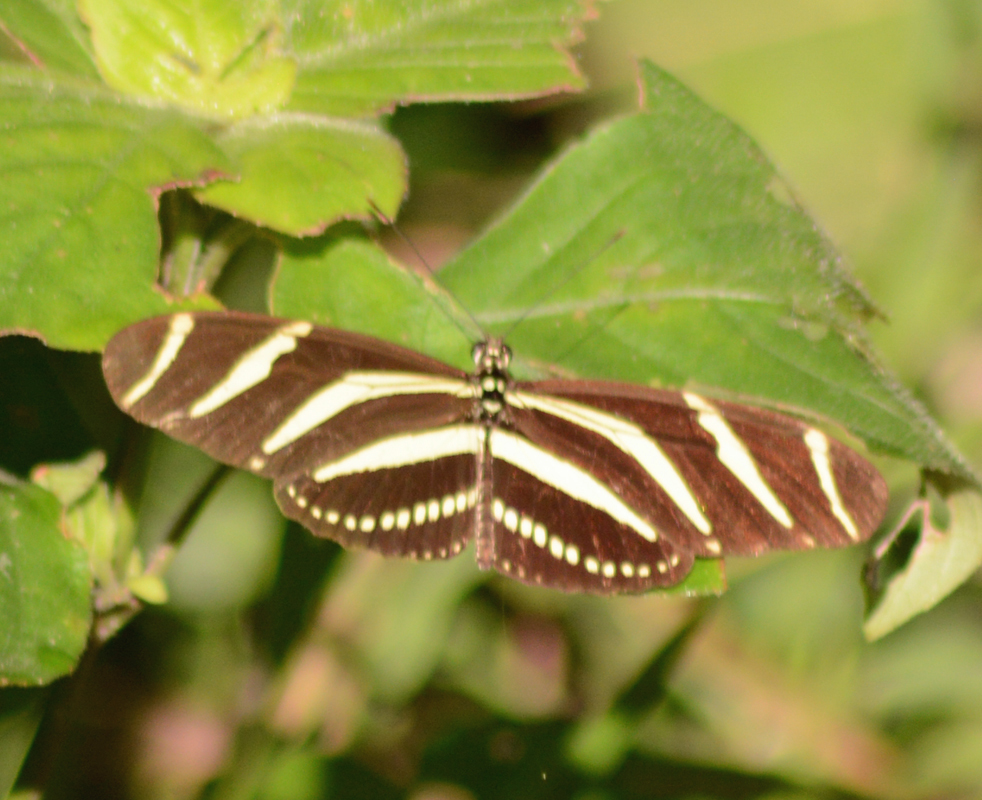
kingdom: Animalia
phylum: Arthropoda
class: Insecta
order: Lepidoptera
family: Nymphalidae
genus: Heliconius
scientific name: Heliconius charithonia
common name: Zebra long wing
